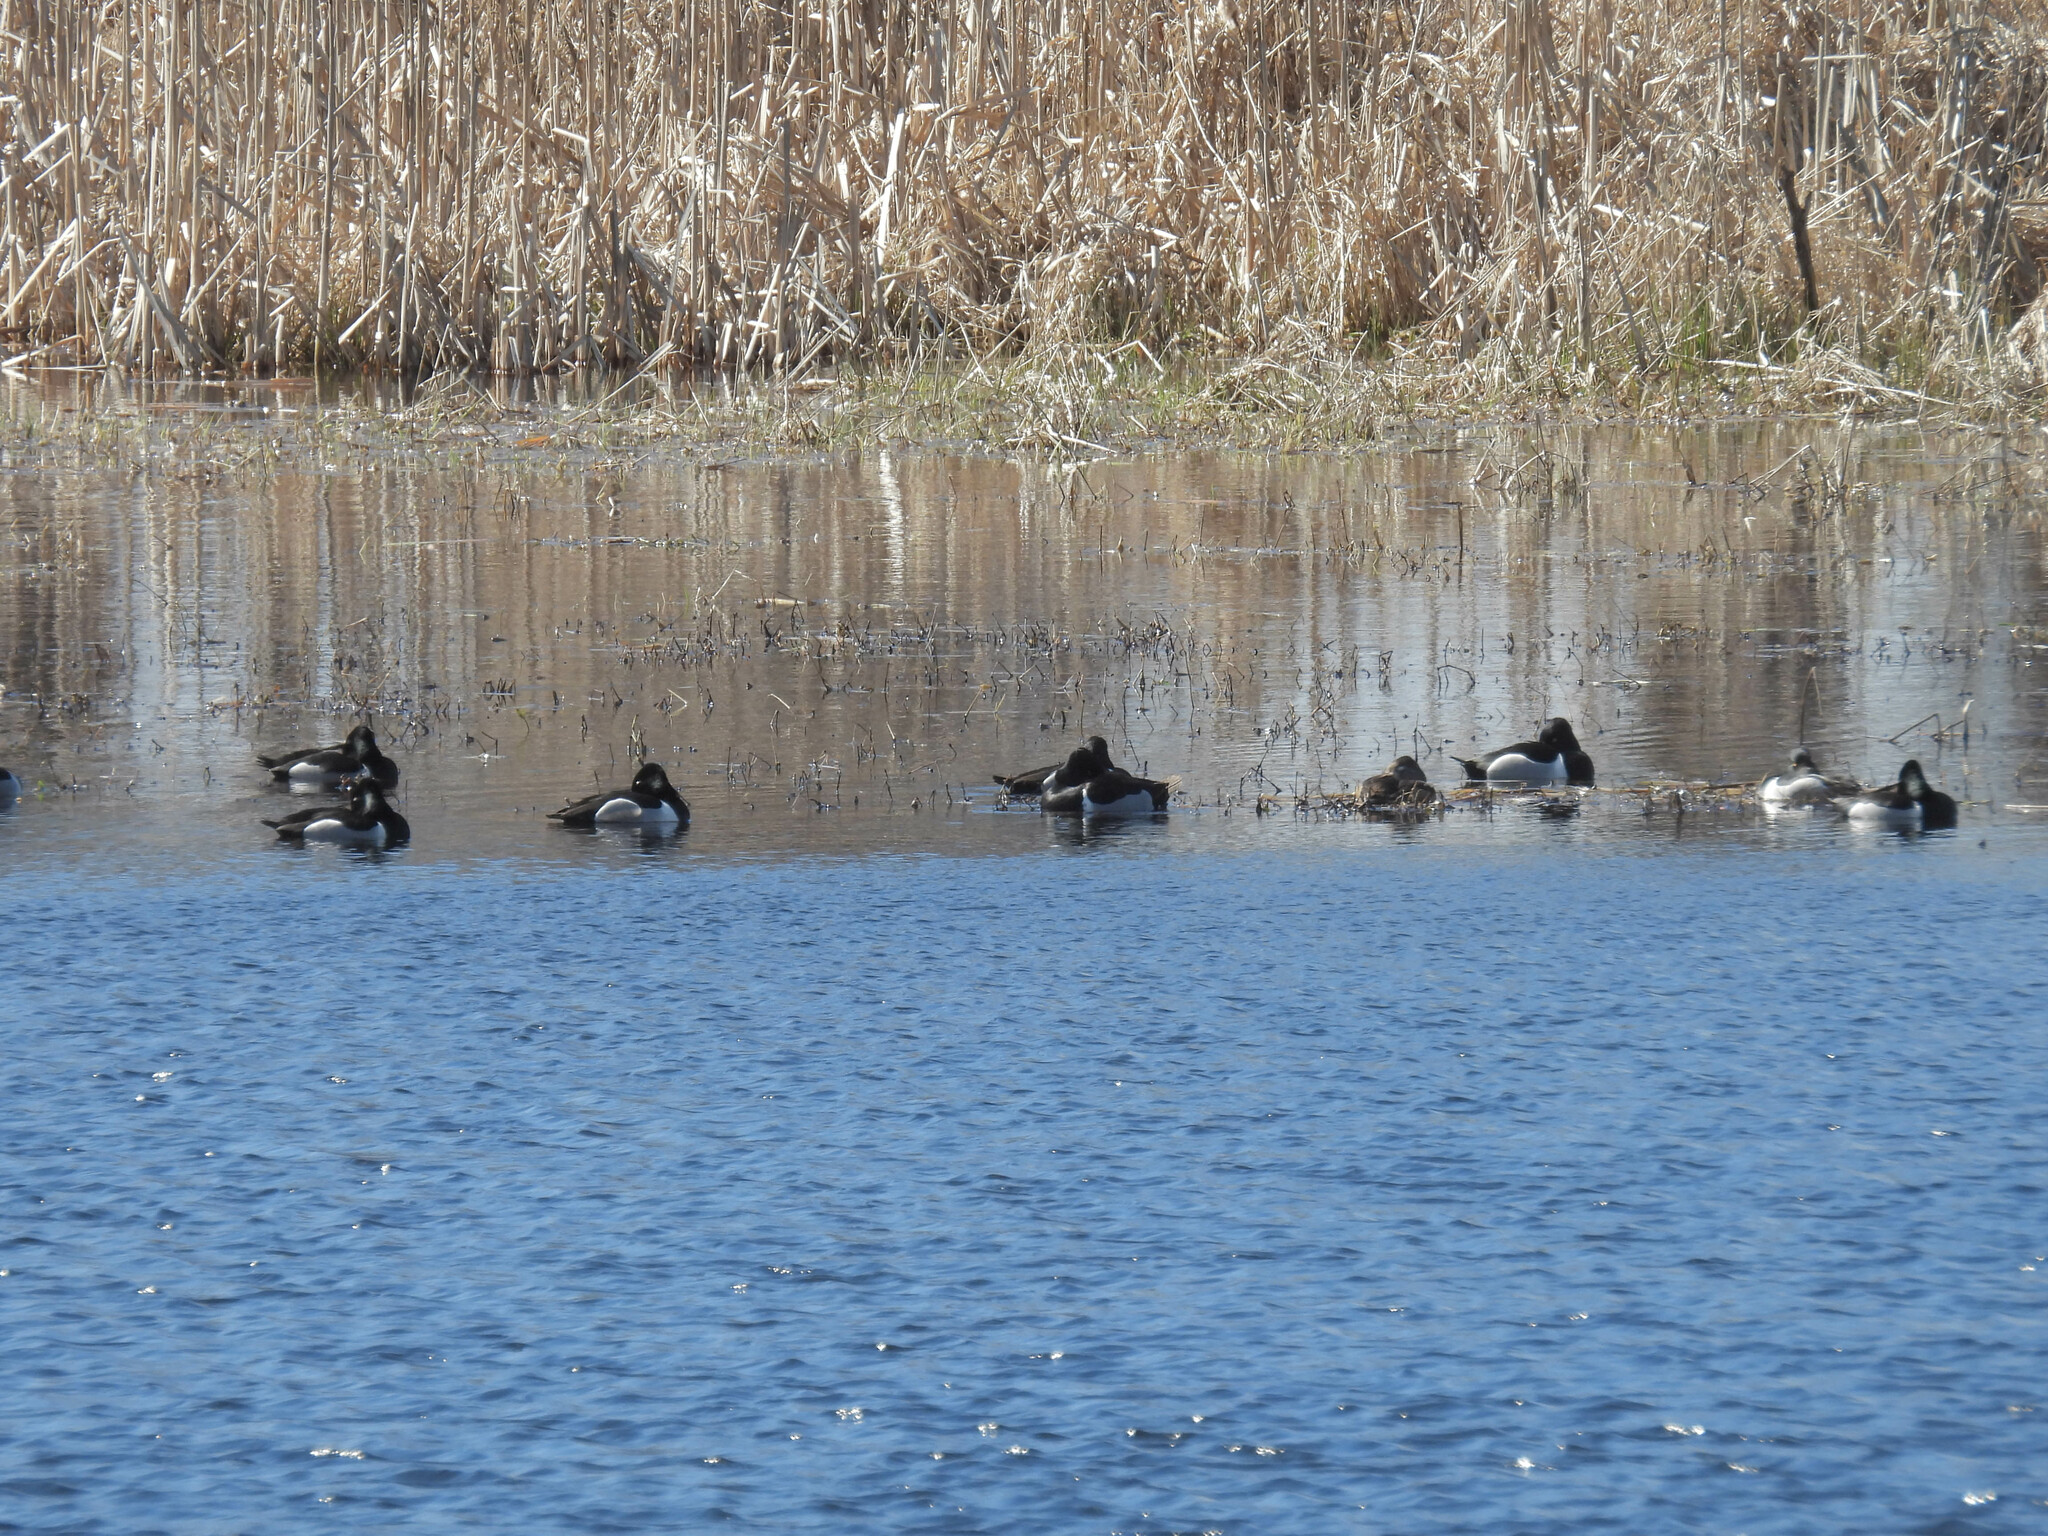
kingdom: Animalia
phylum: Chordata
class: Aves
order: Anseriformes
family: Anatidae
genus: Aythya
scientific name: Aythya collaris
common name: Ring-necked duck
